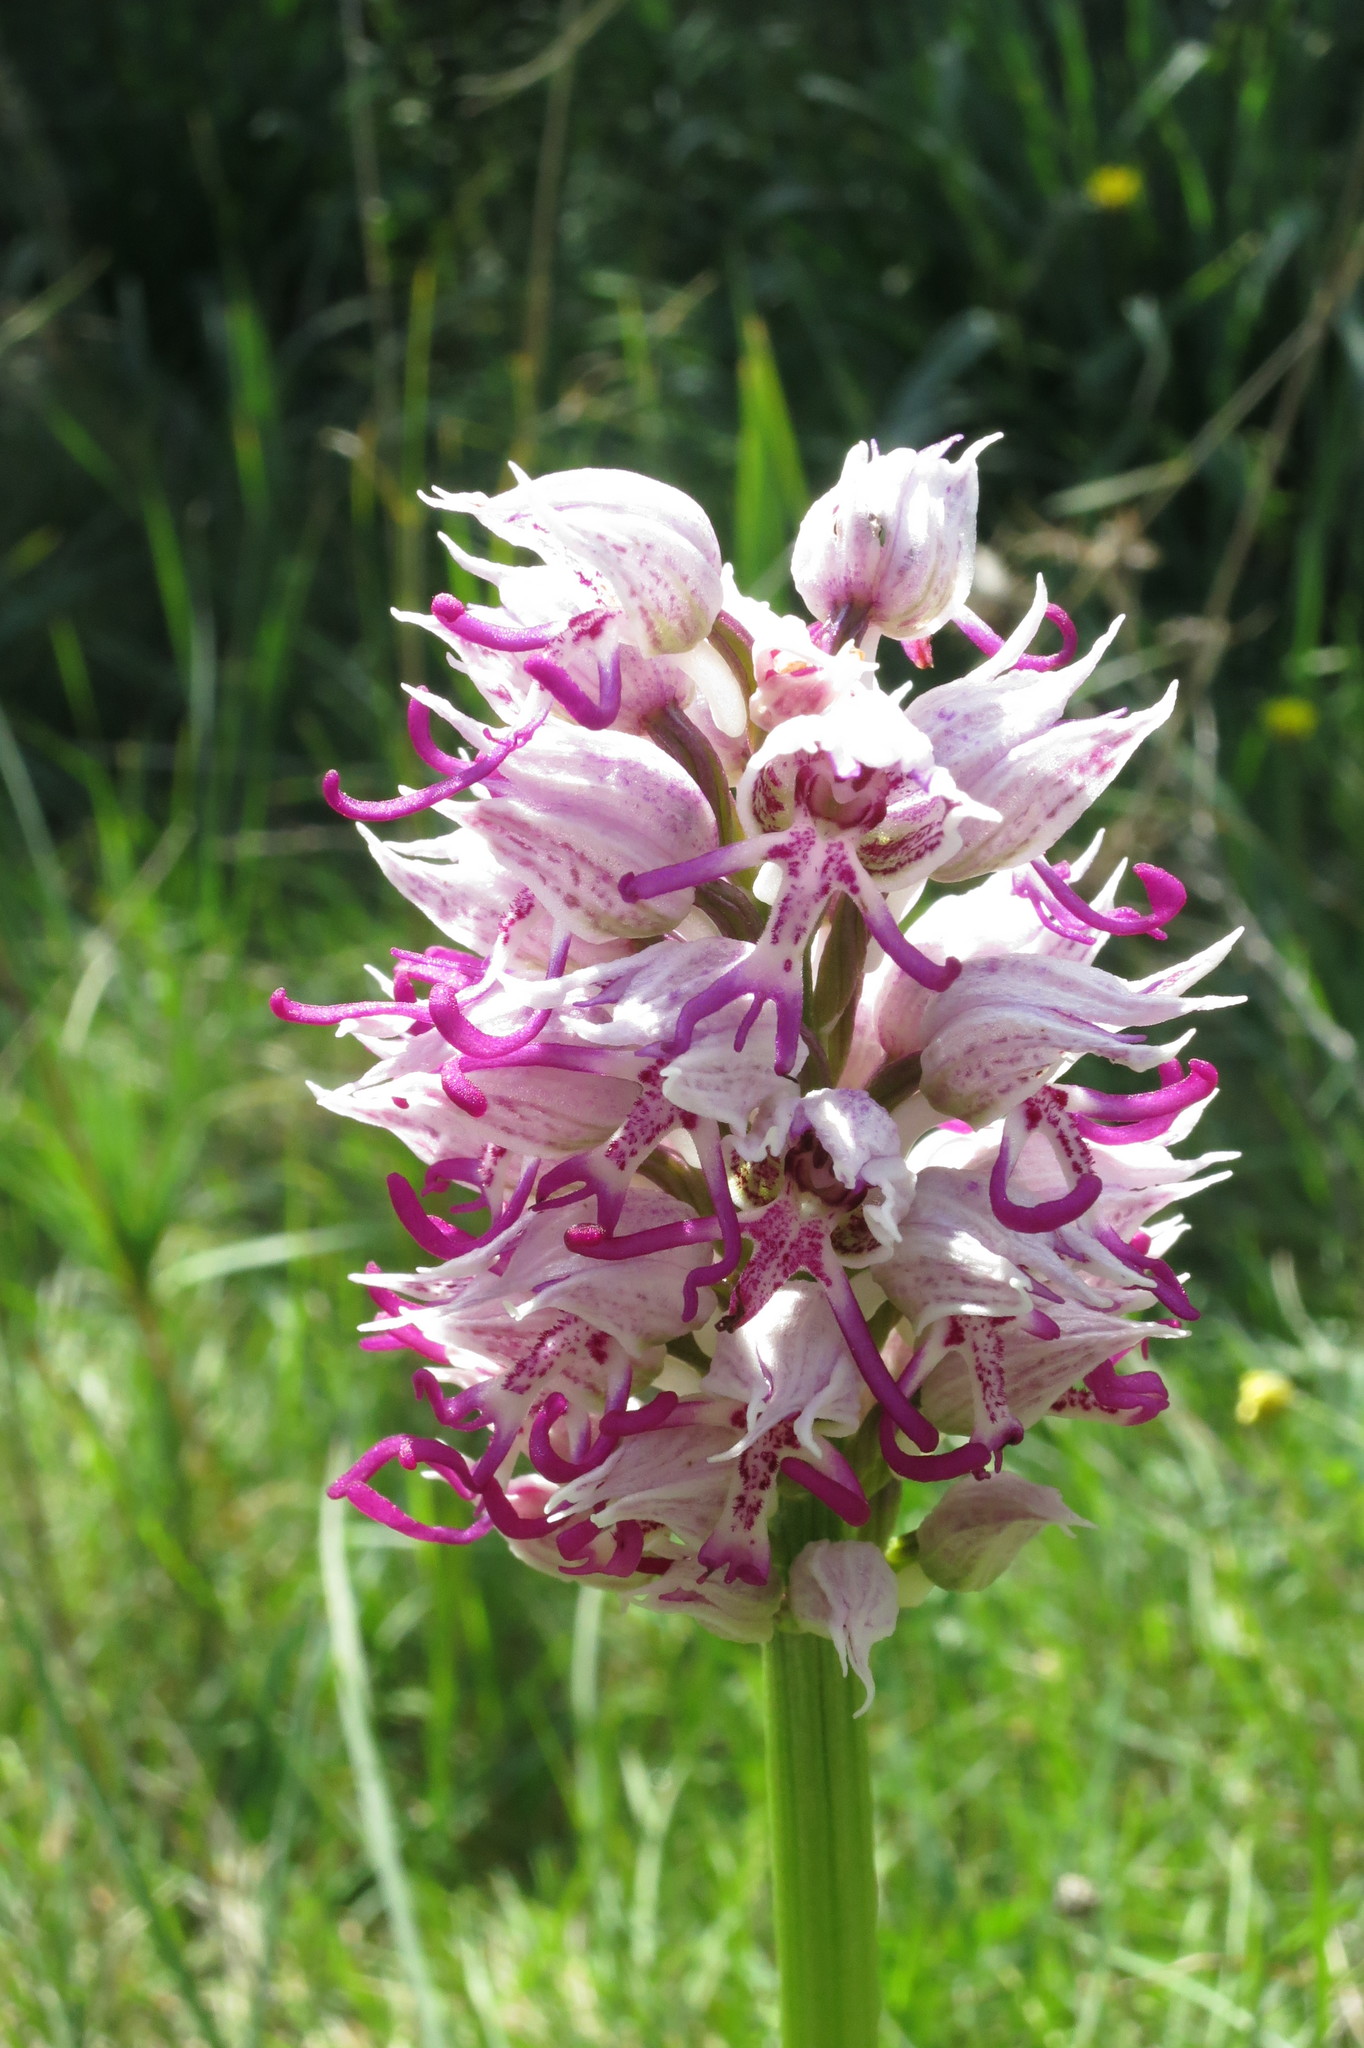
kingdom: Plantae
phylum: Tracheophyta
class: Liliopsida
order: Asparagales
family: Orchidaceae
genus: Orchis
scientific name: Orchis simia
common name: Monkey orchid
